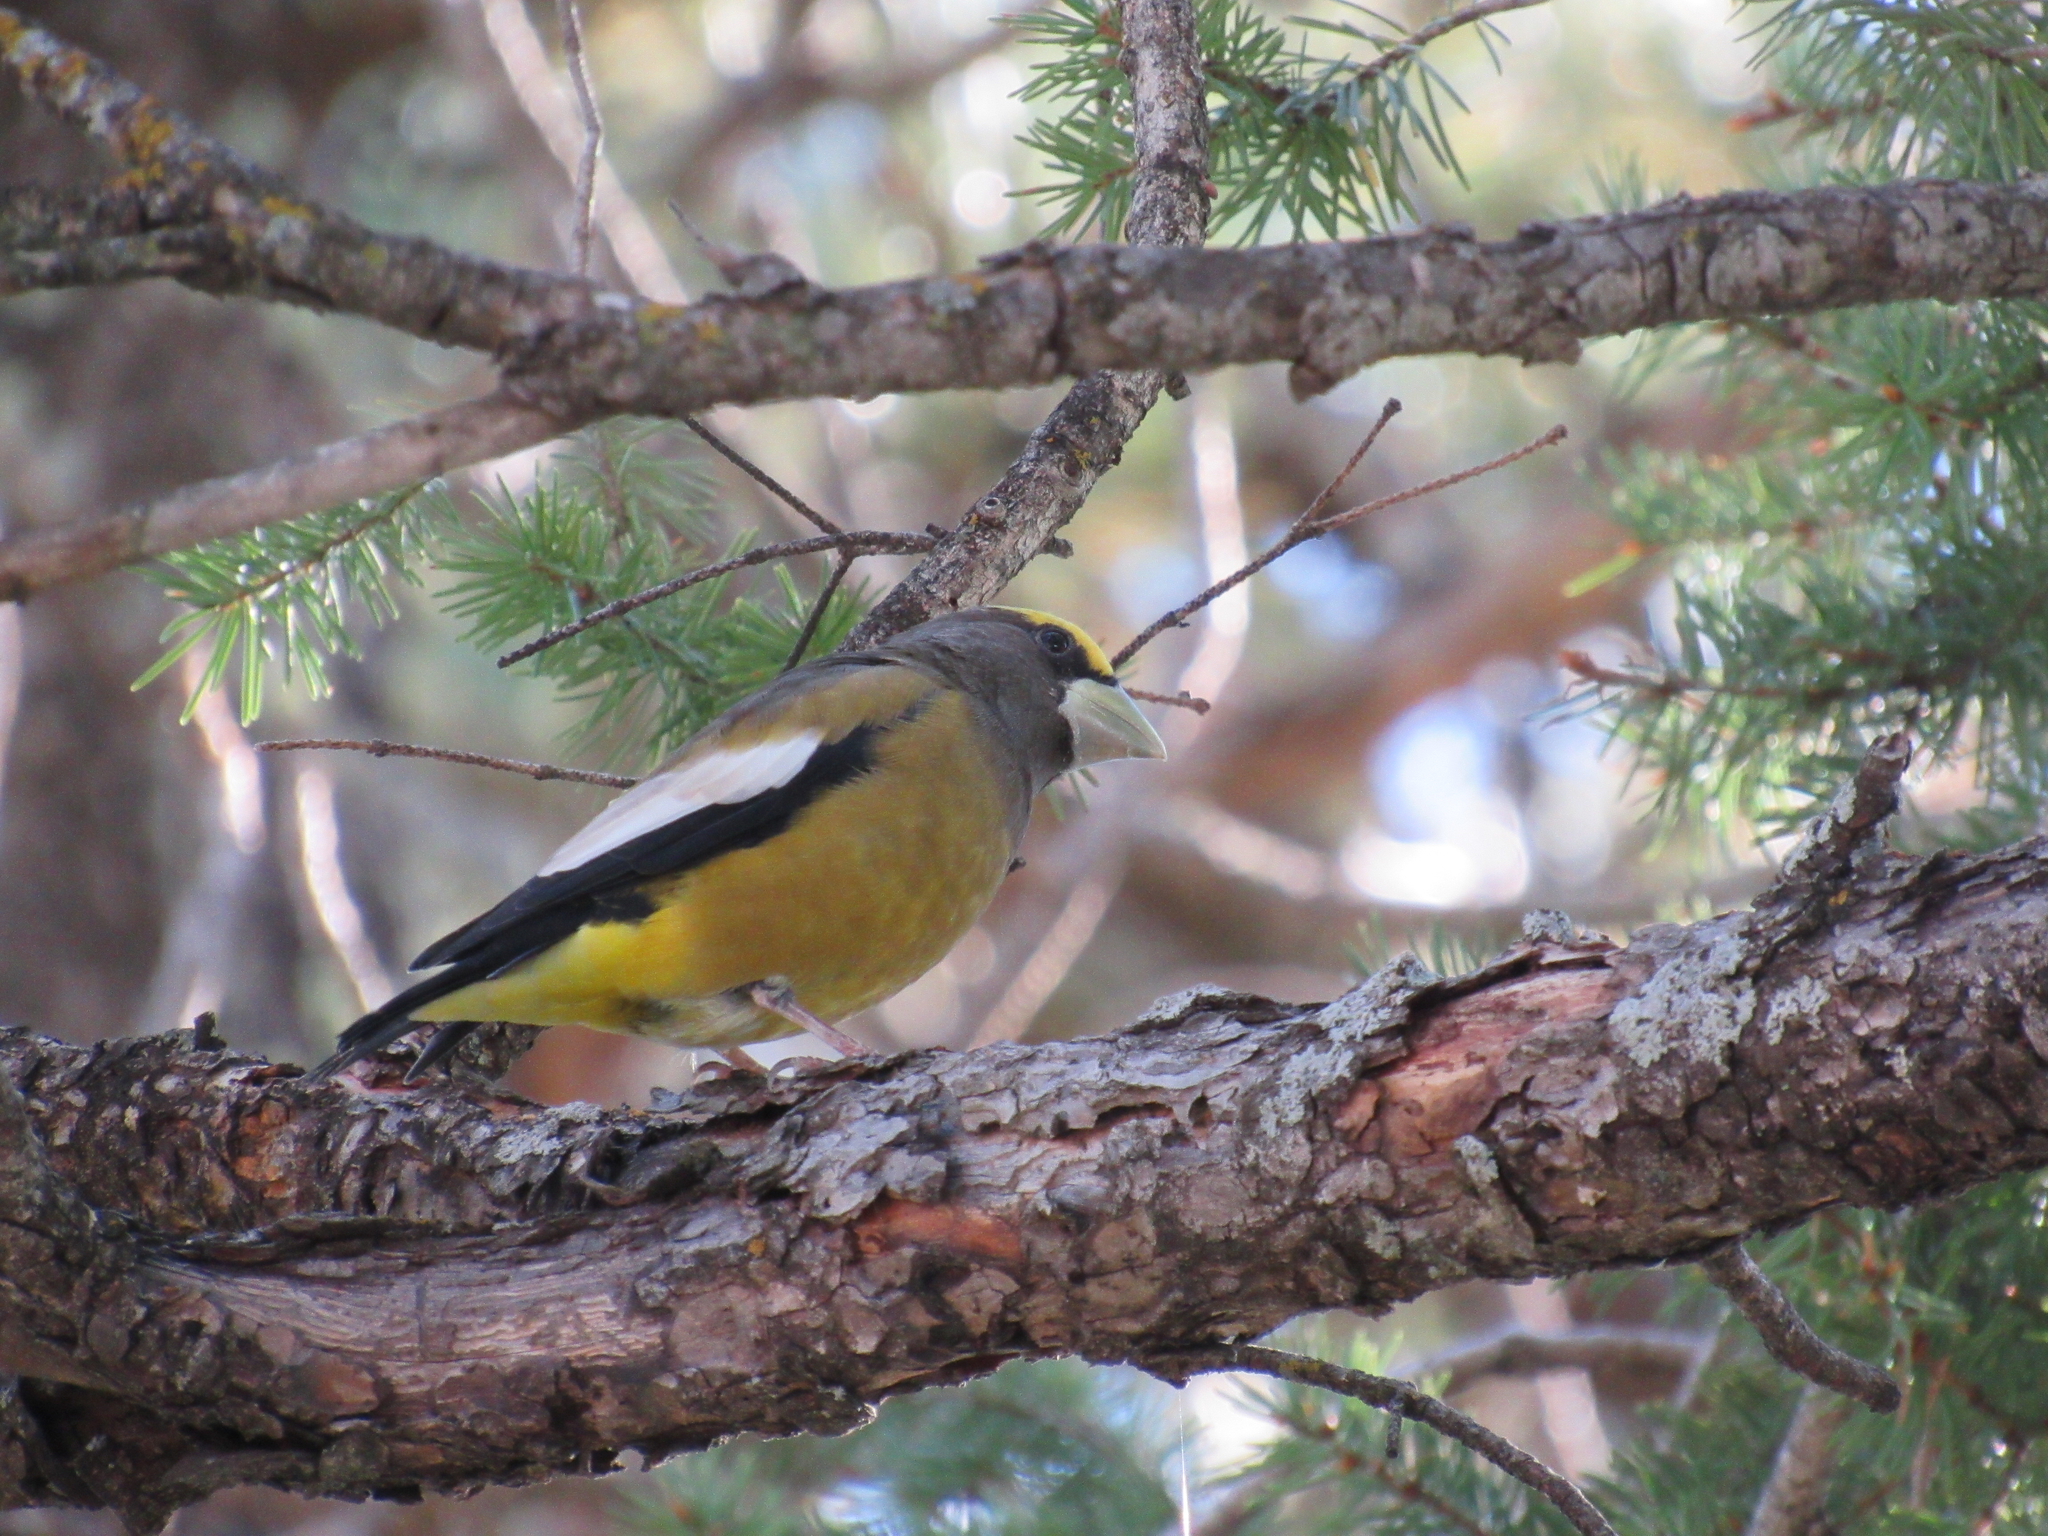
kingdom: Animalia
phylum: Chordata
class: Aves
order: Passeriformes
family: Fringillidae
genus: Hesperiphona
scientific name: Hesperiphona vespertina
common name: Evening grosbeak
